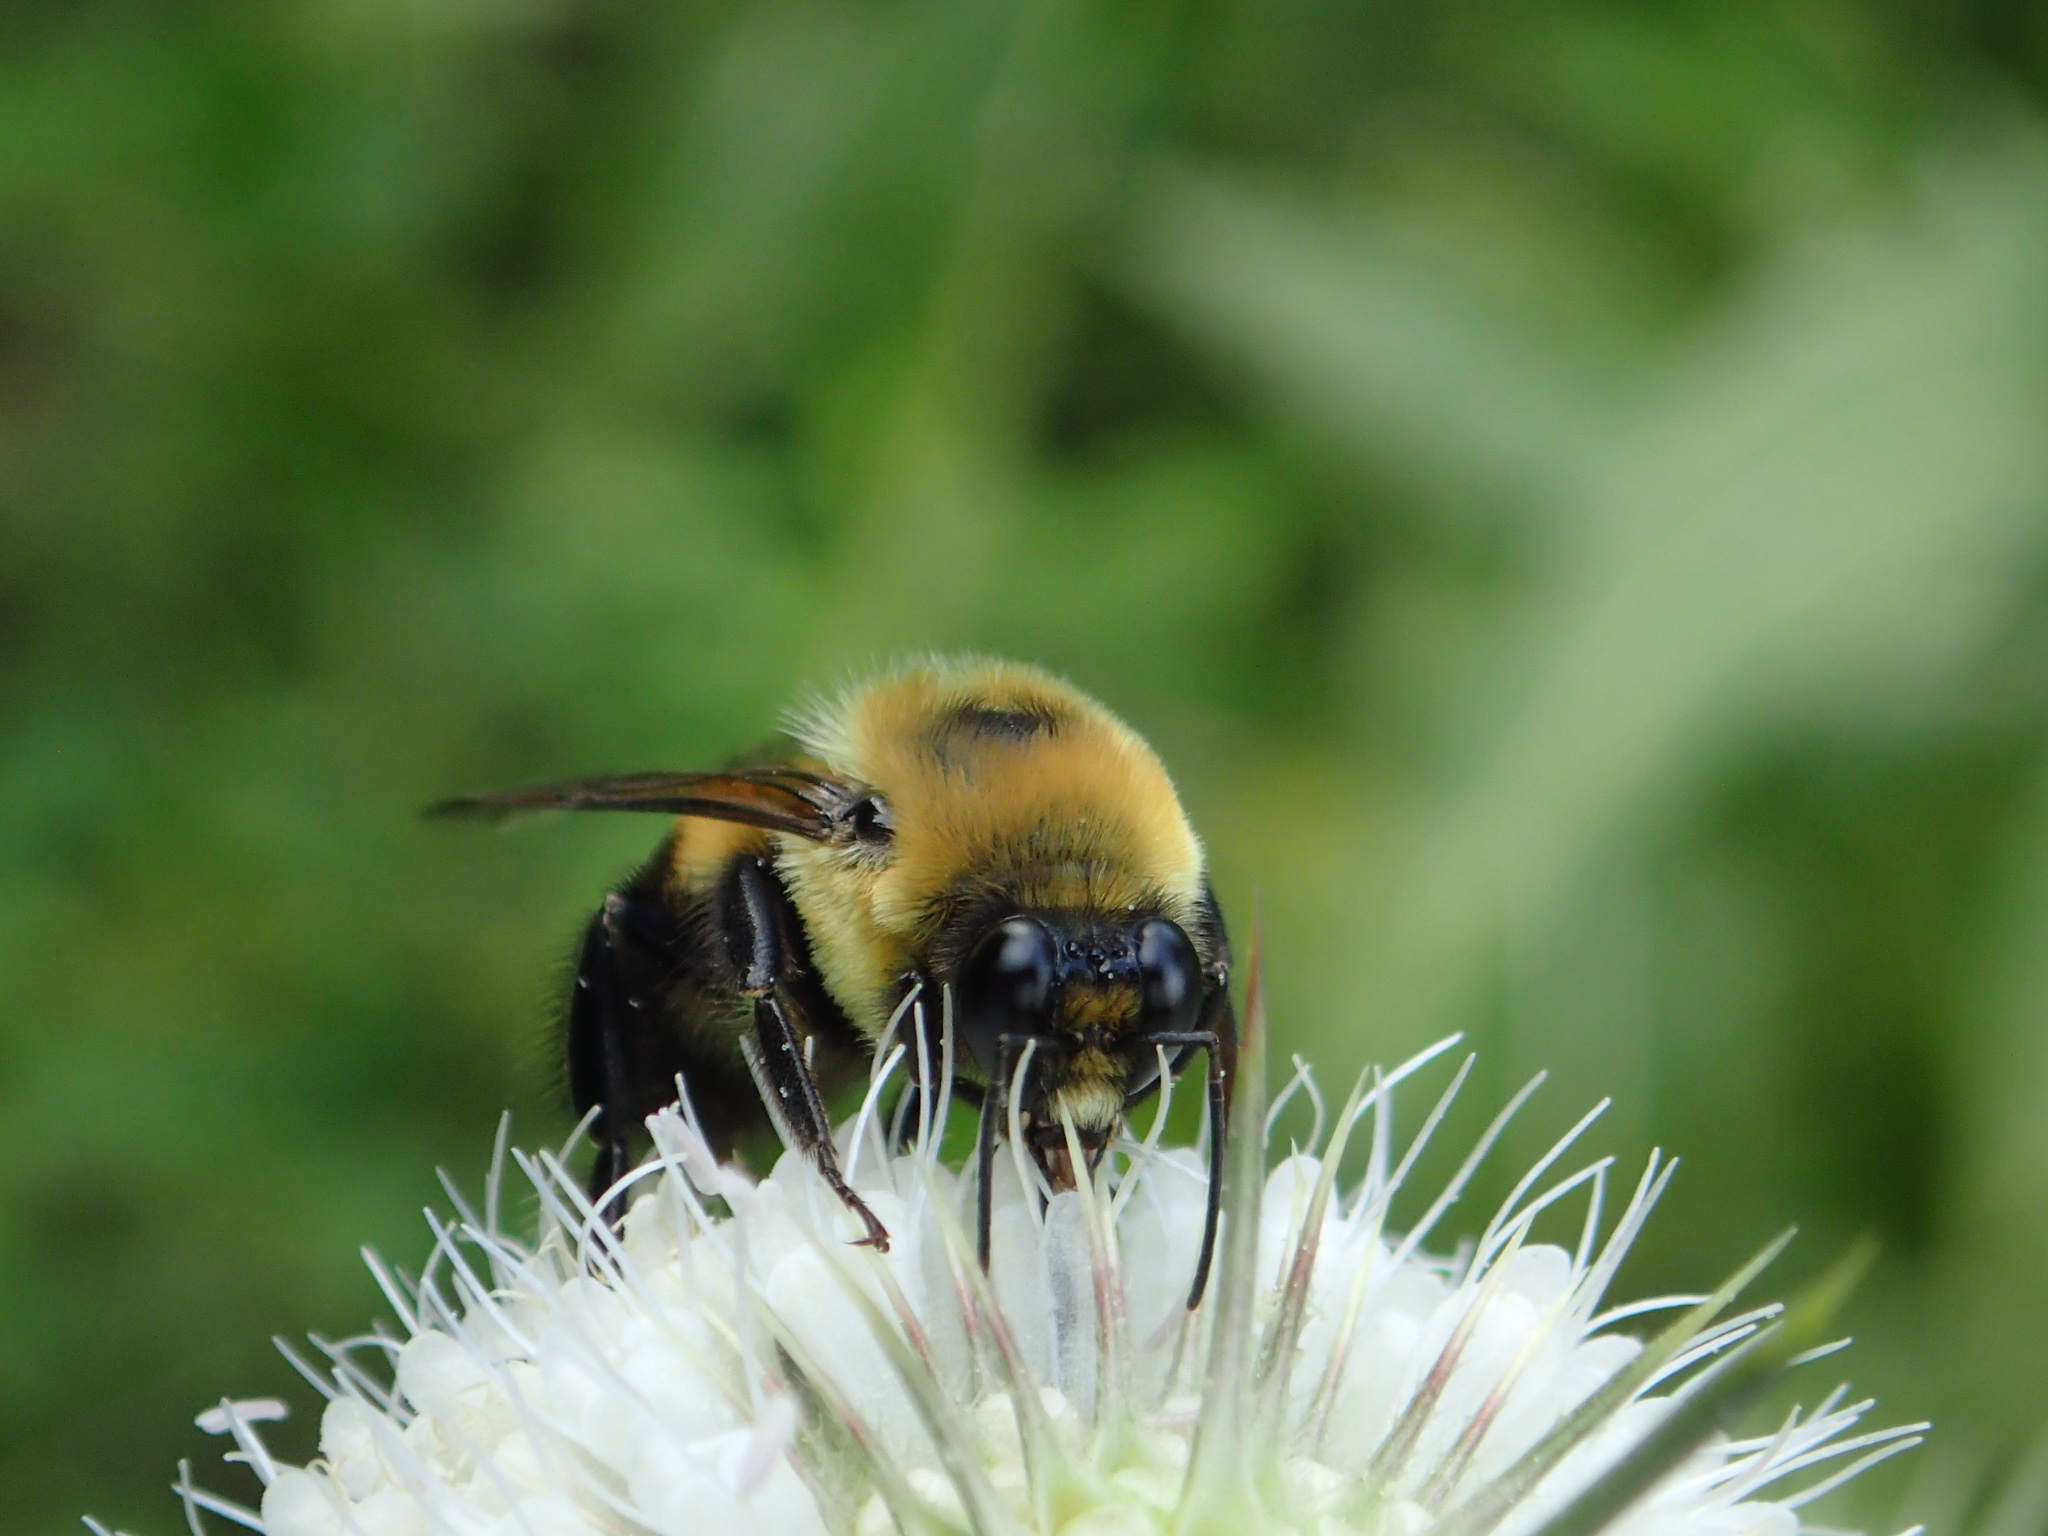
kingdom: Animalia
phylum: Arthropoda
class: Insecta
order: Hymenoptera
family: Apidae
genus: Bombus
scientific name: Bombus griseocollis
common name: Brown-belted bumble bee
